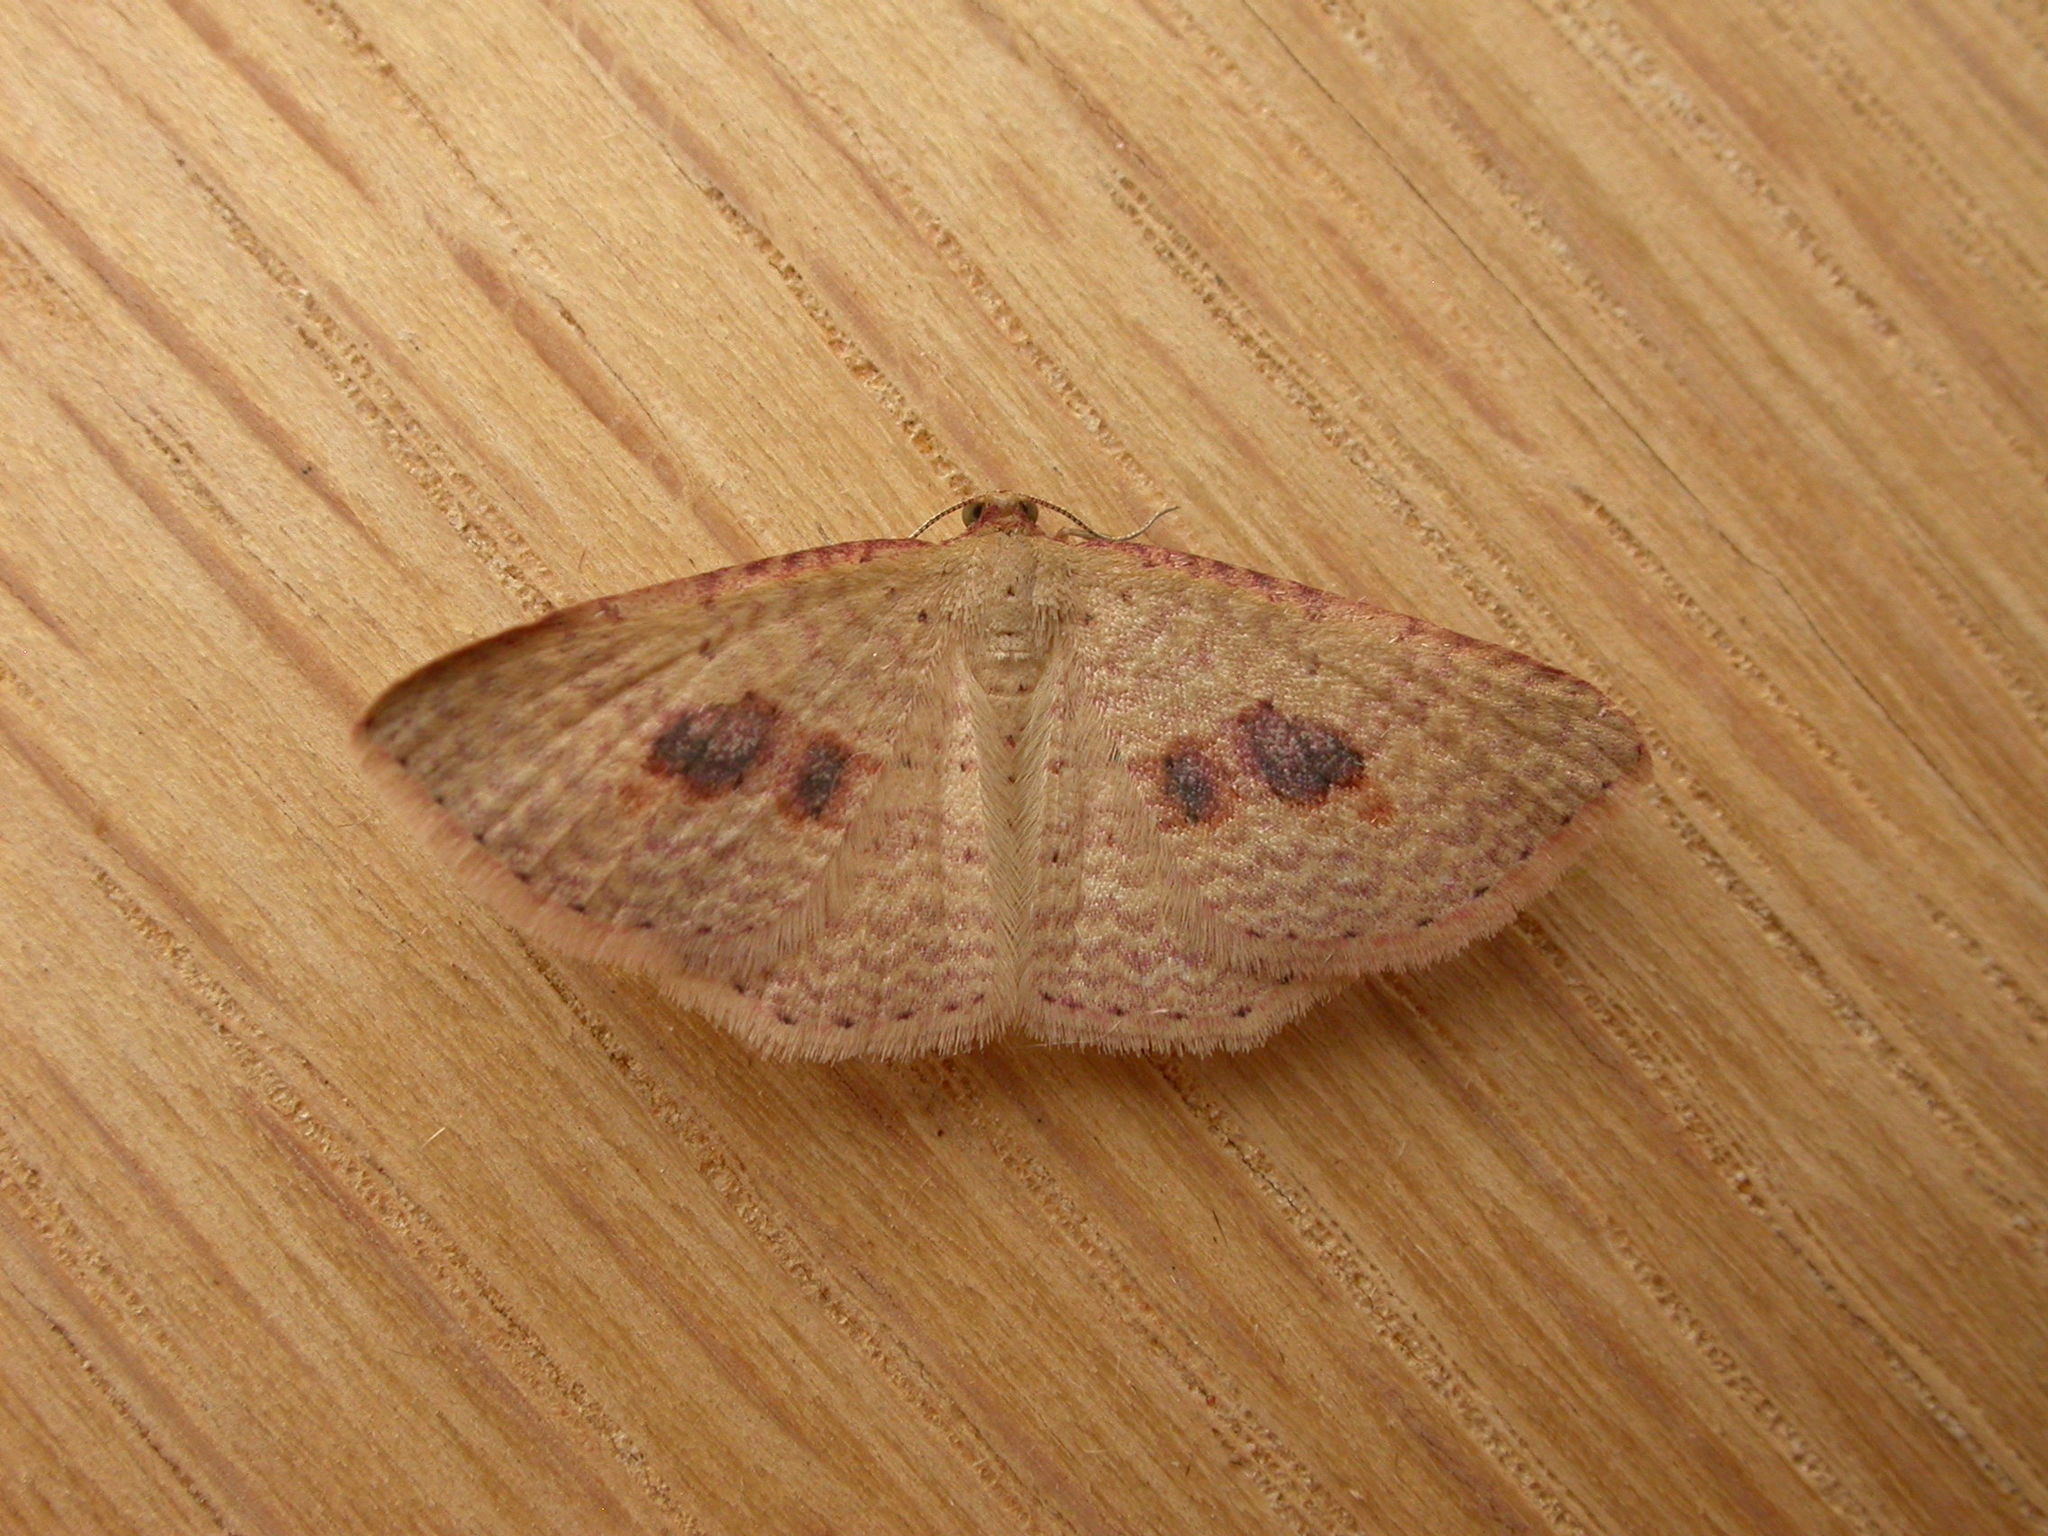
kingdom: Animalia
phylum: Arthropoda
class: Insecta
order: Lepidoptera
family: Geometridae
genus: Epicyme
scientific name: Epicyme rubropunctaria
